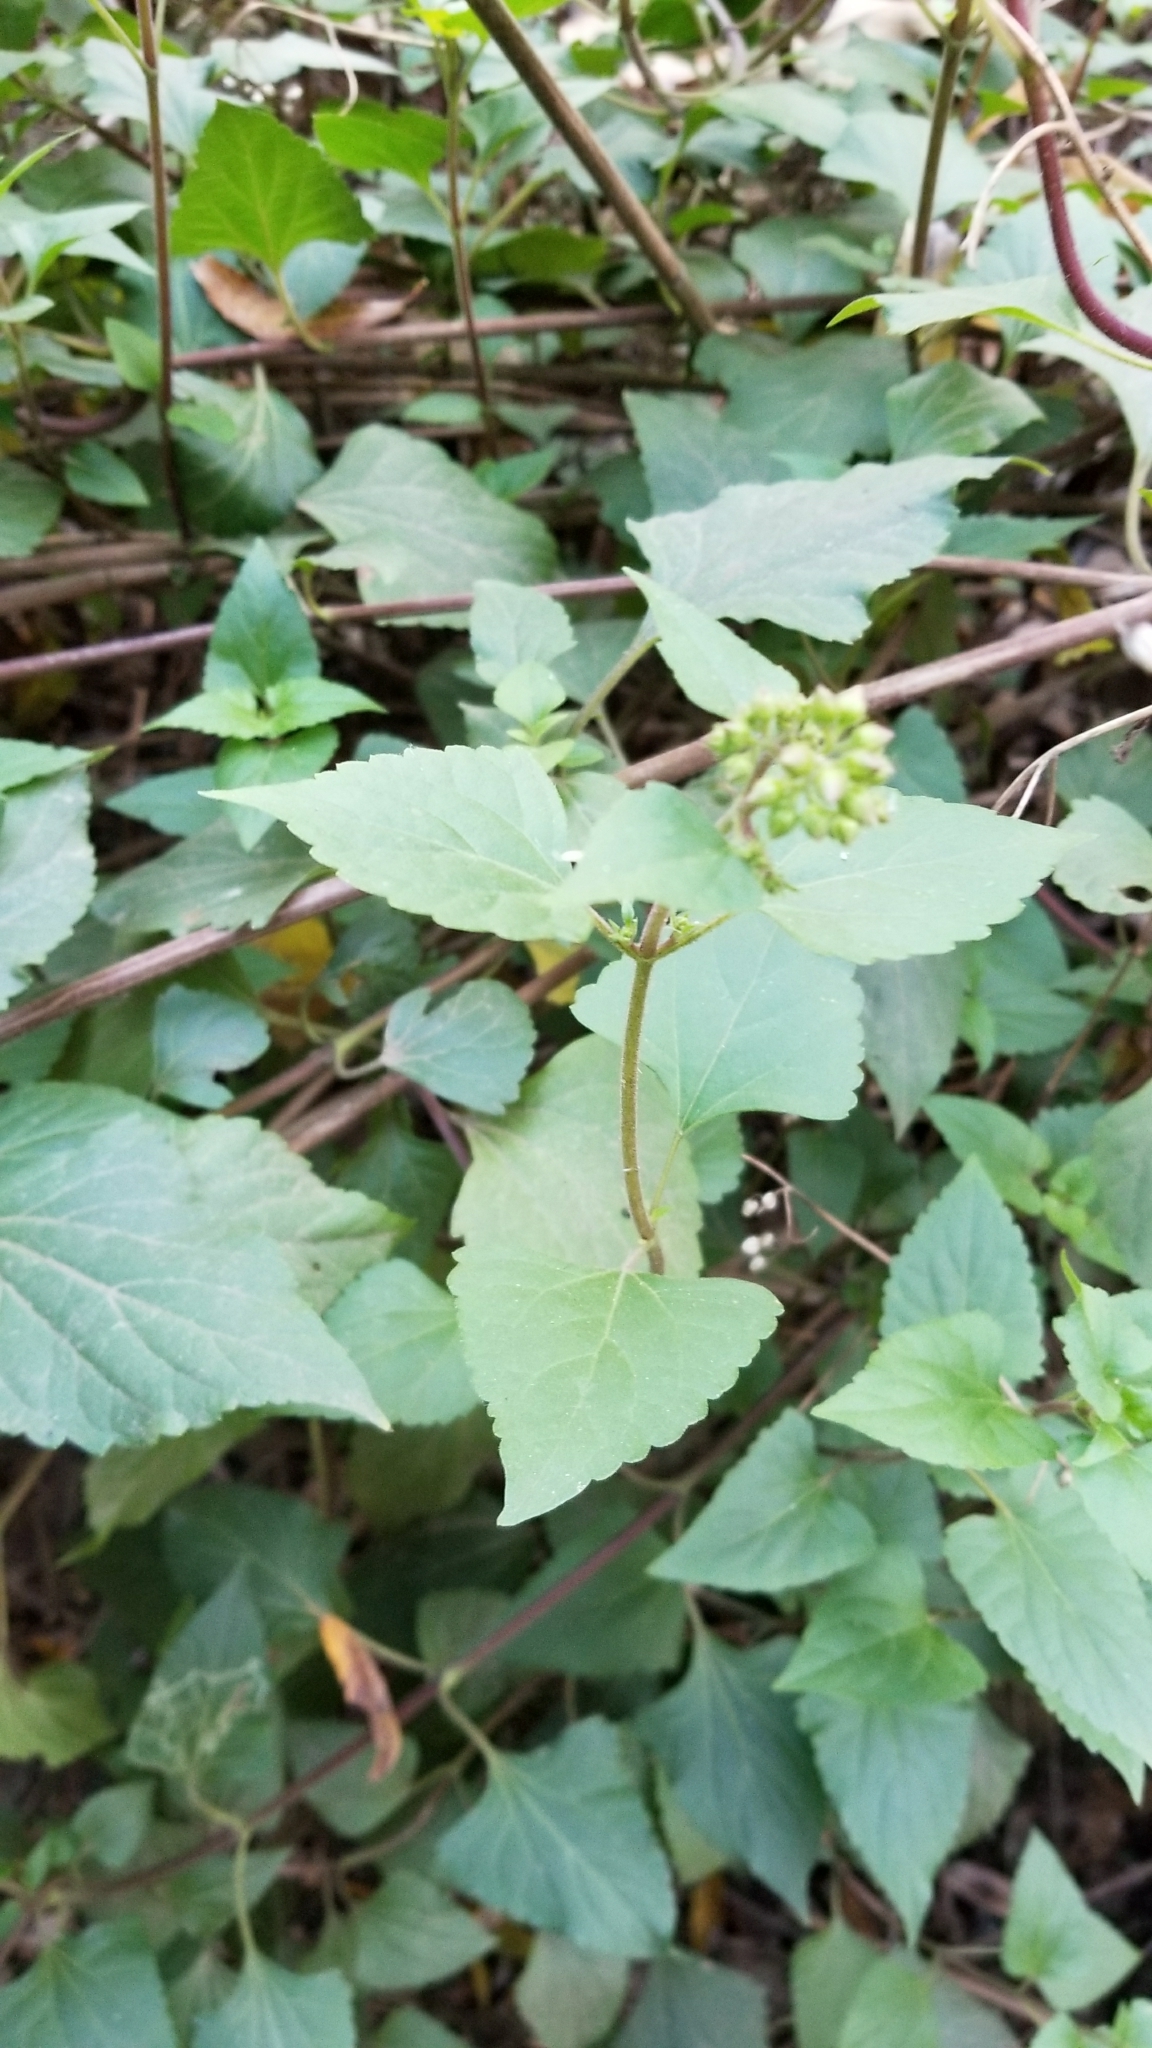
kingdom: Plantae
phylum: Tracheophyta
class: Magnoliopsida
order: Asterales
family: Asteraceae
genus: Ageratina
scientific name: Ageratina adenophora
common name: Sticky snakeroot
